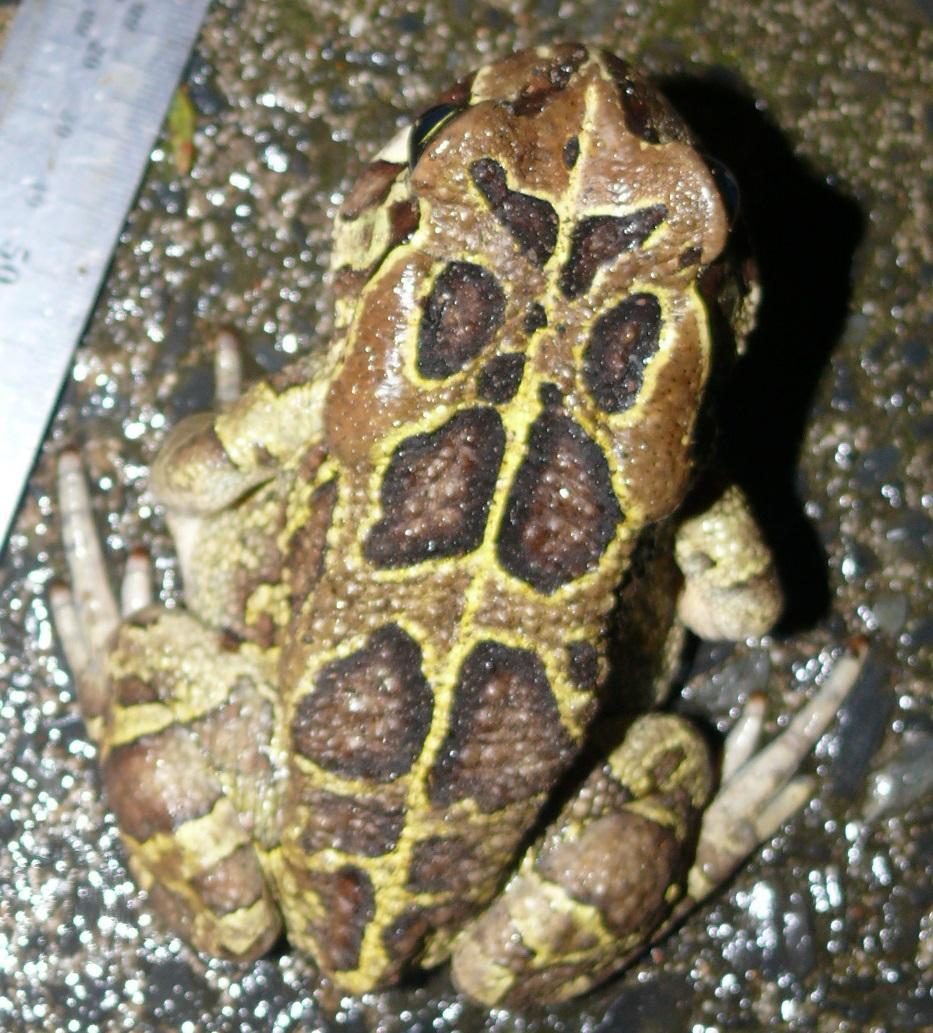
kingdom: Animalia
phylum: Chordata
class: Amphibia
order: Anura
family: Bufonidae
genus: Sclerophrys
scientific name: Sclerophrys pantherina
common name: Panther toad
